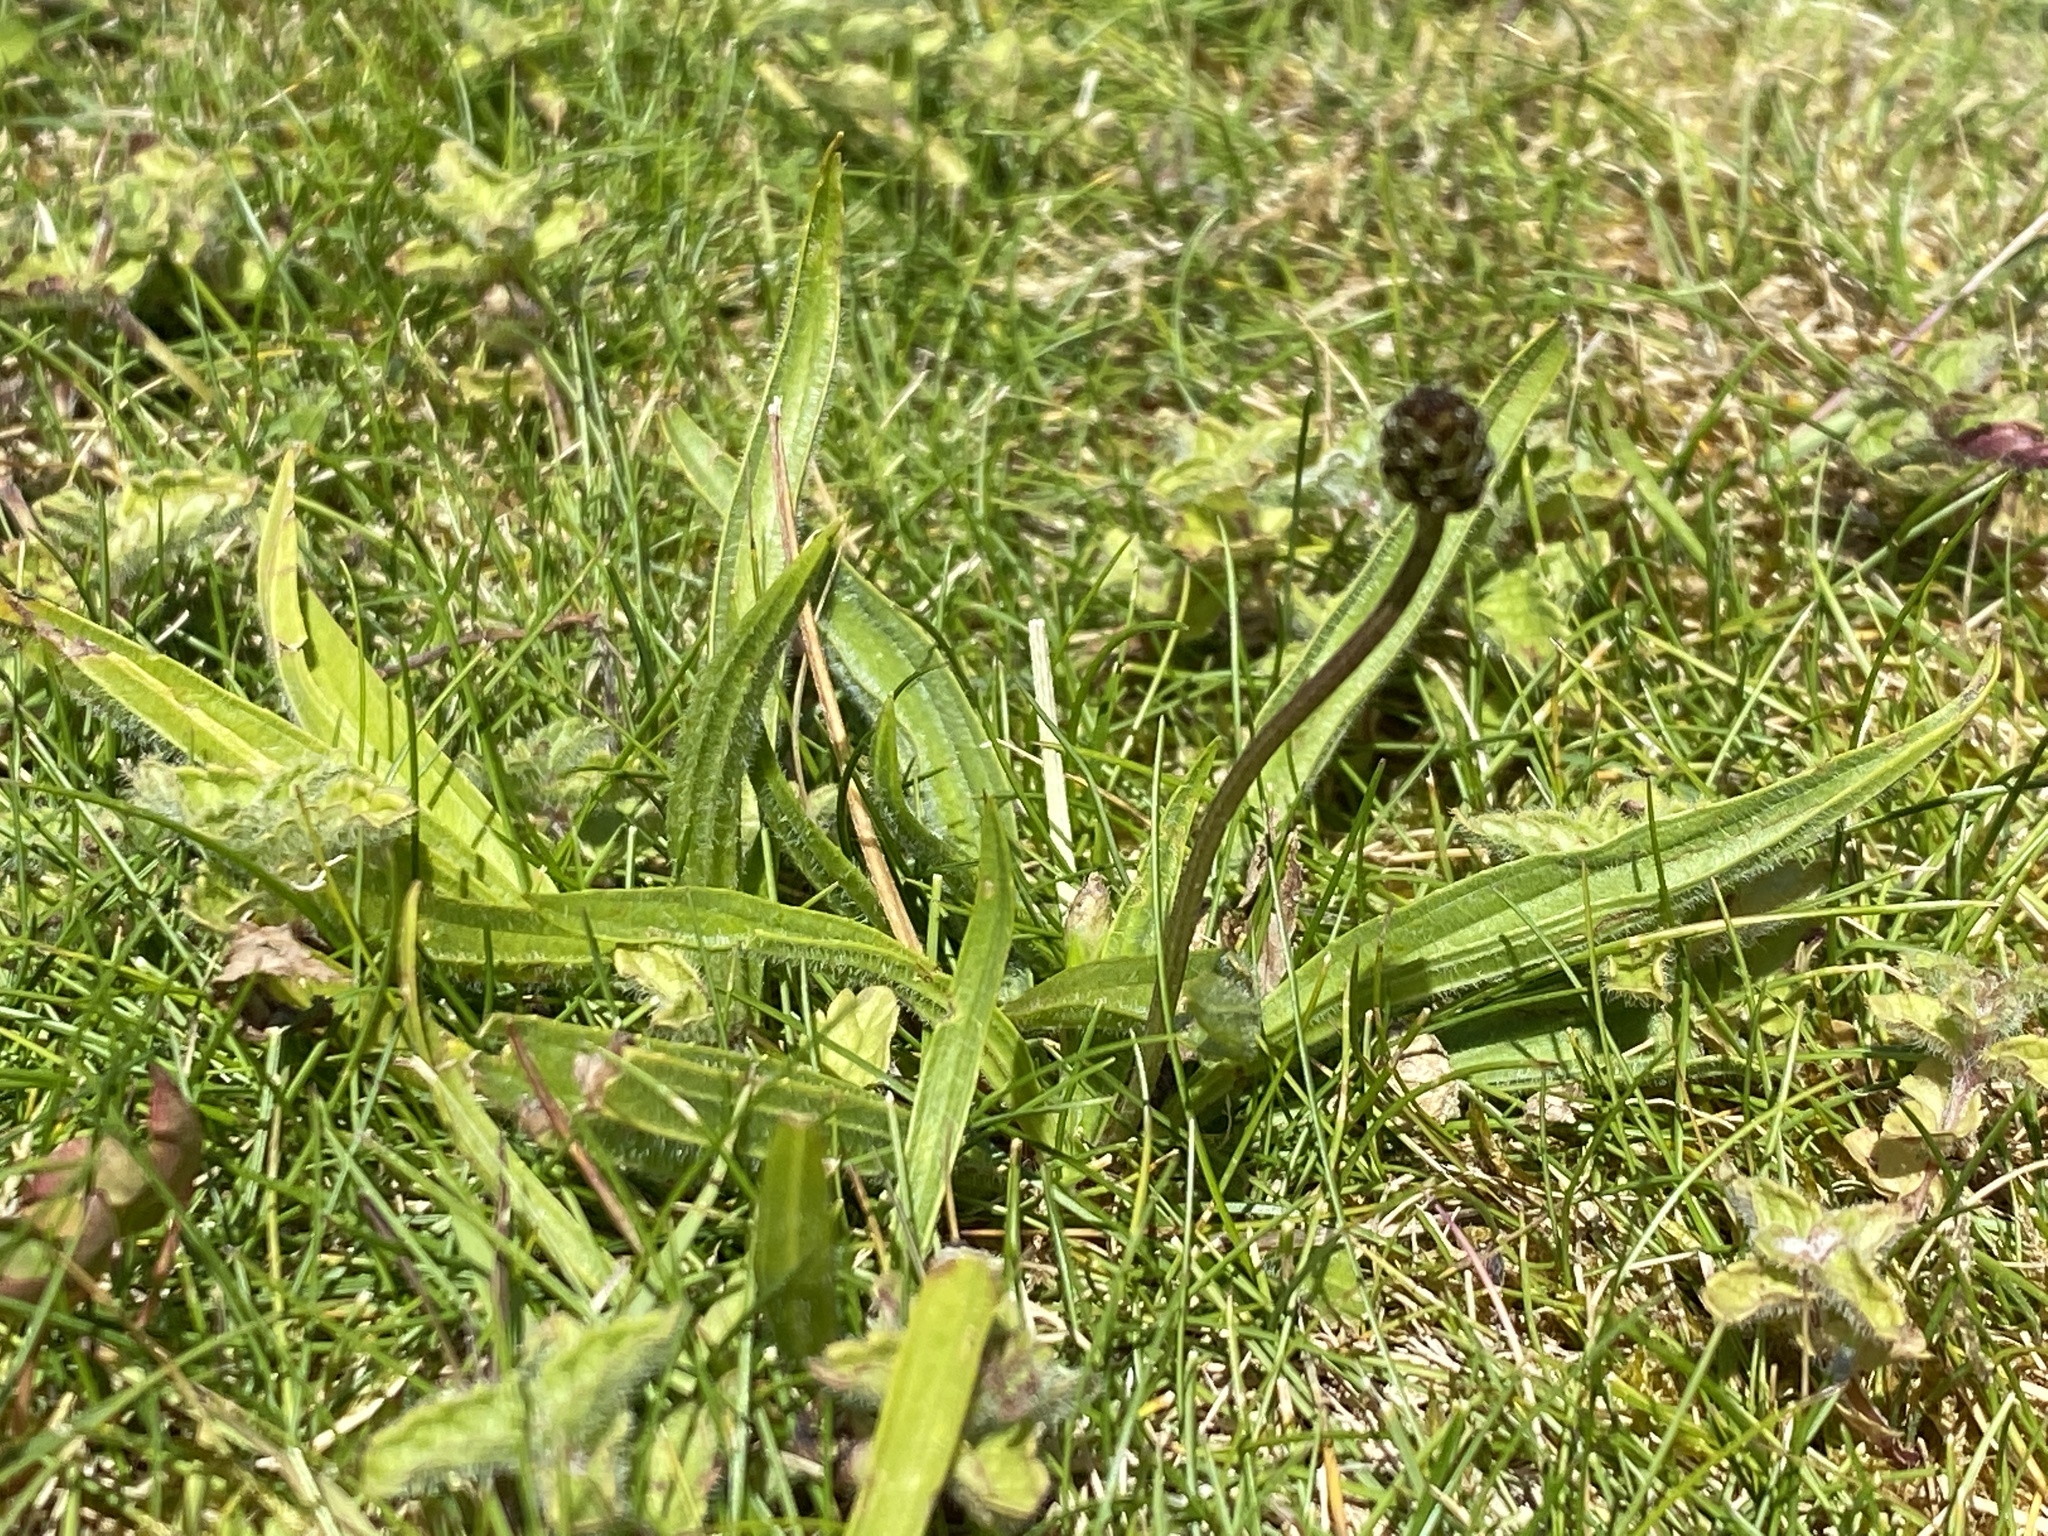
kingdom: Plantae
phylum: Tracheophyta
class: Magnoliopsida
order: Lamiales
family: Plantaginaceae
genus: Plantago
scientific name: Plantago lanceolata
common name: Ribwort plantain
